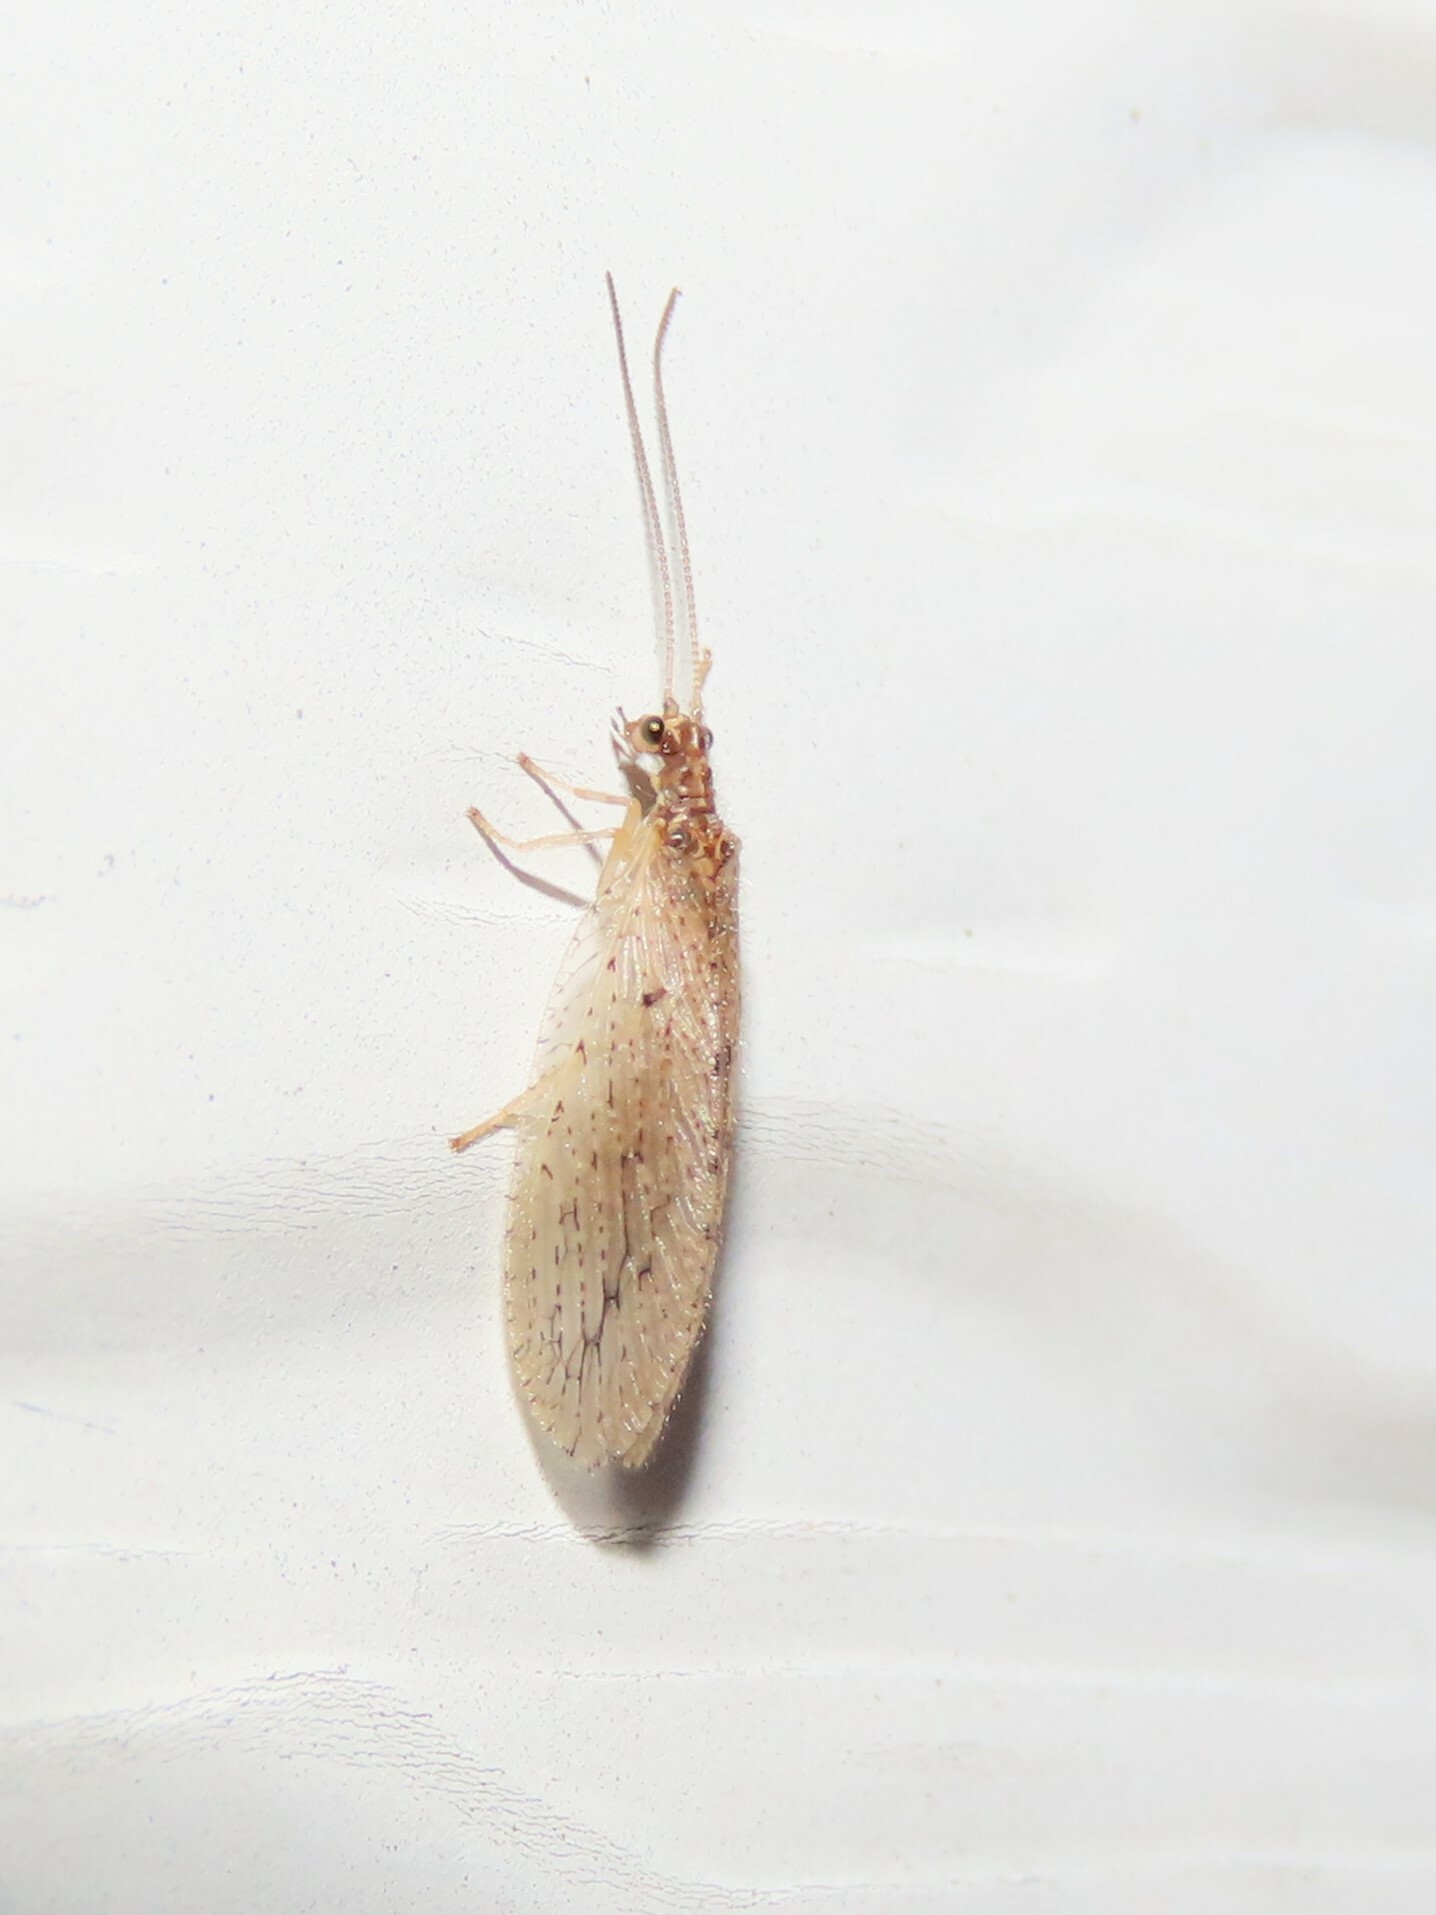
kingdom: Animalia
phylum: Arthropoda
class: Insecta
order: Neuroptera
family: Hemerobiidae
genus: Micromus
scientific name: Micromus subanticus
